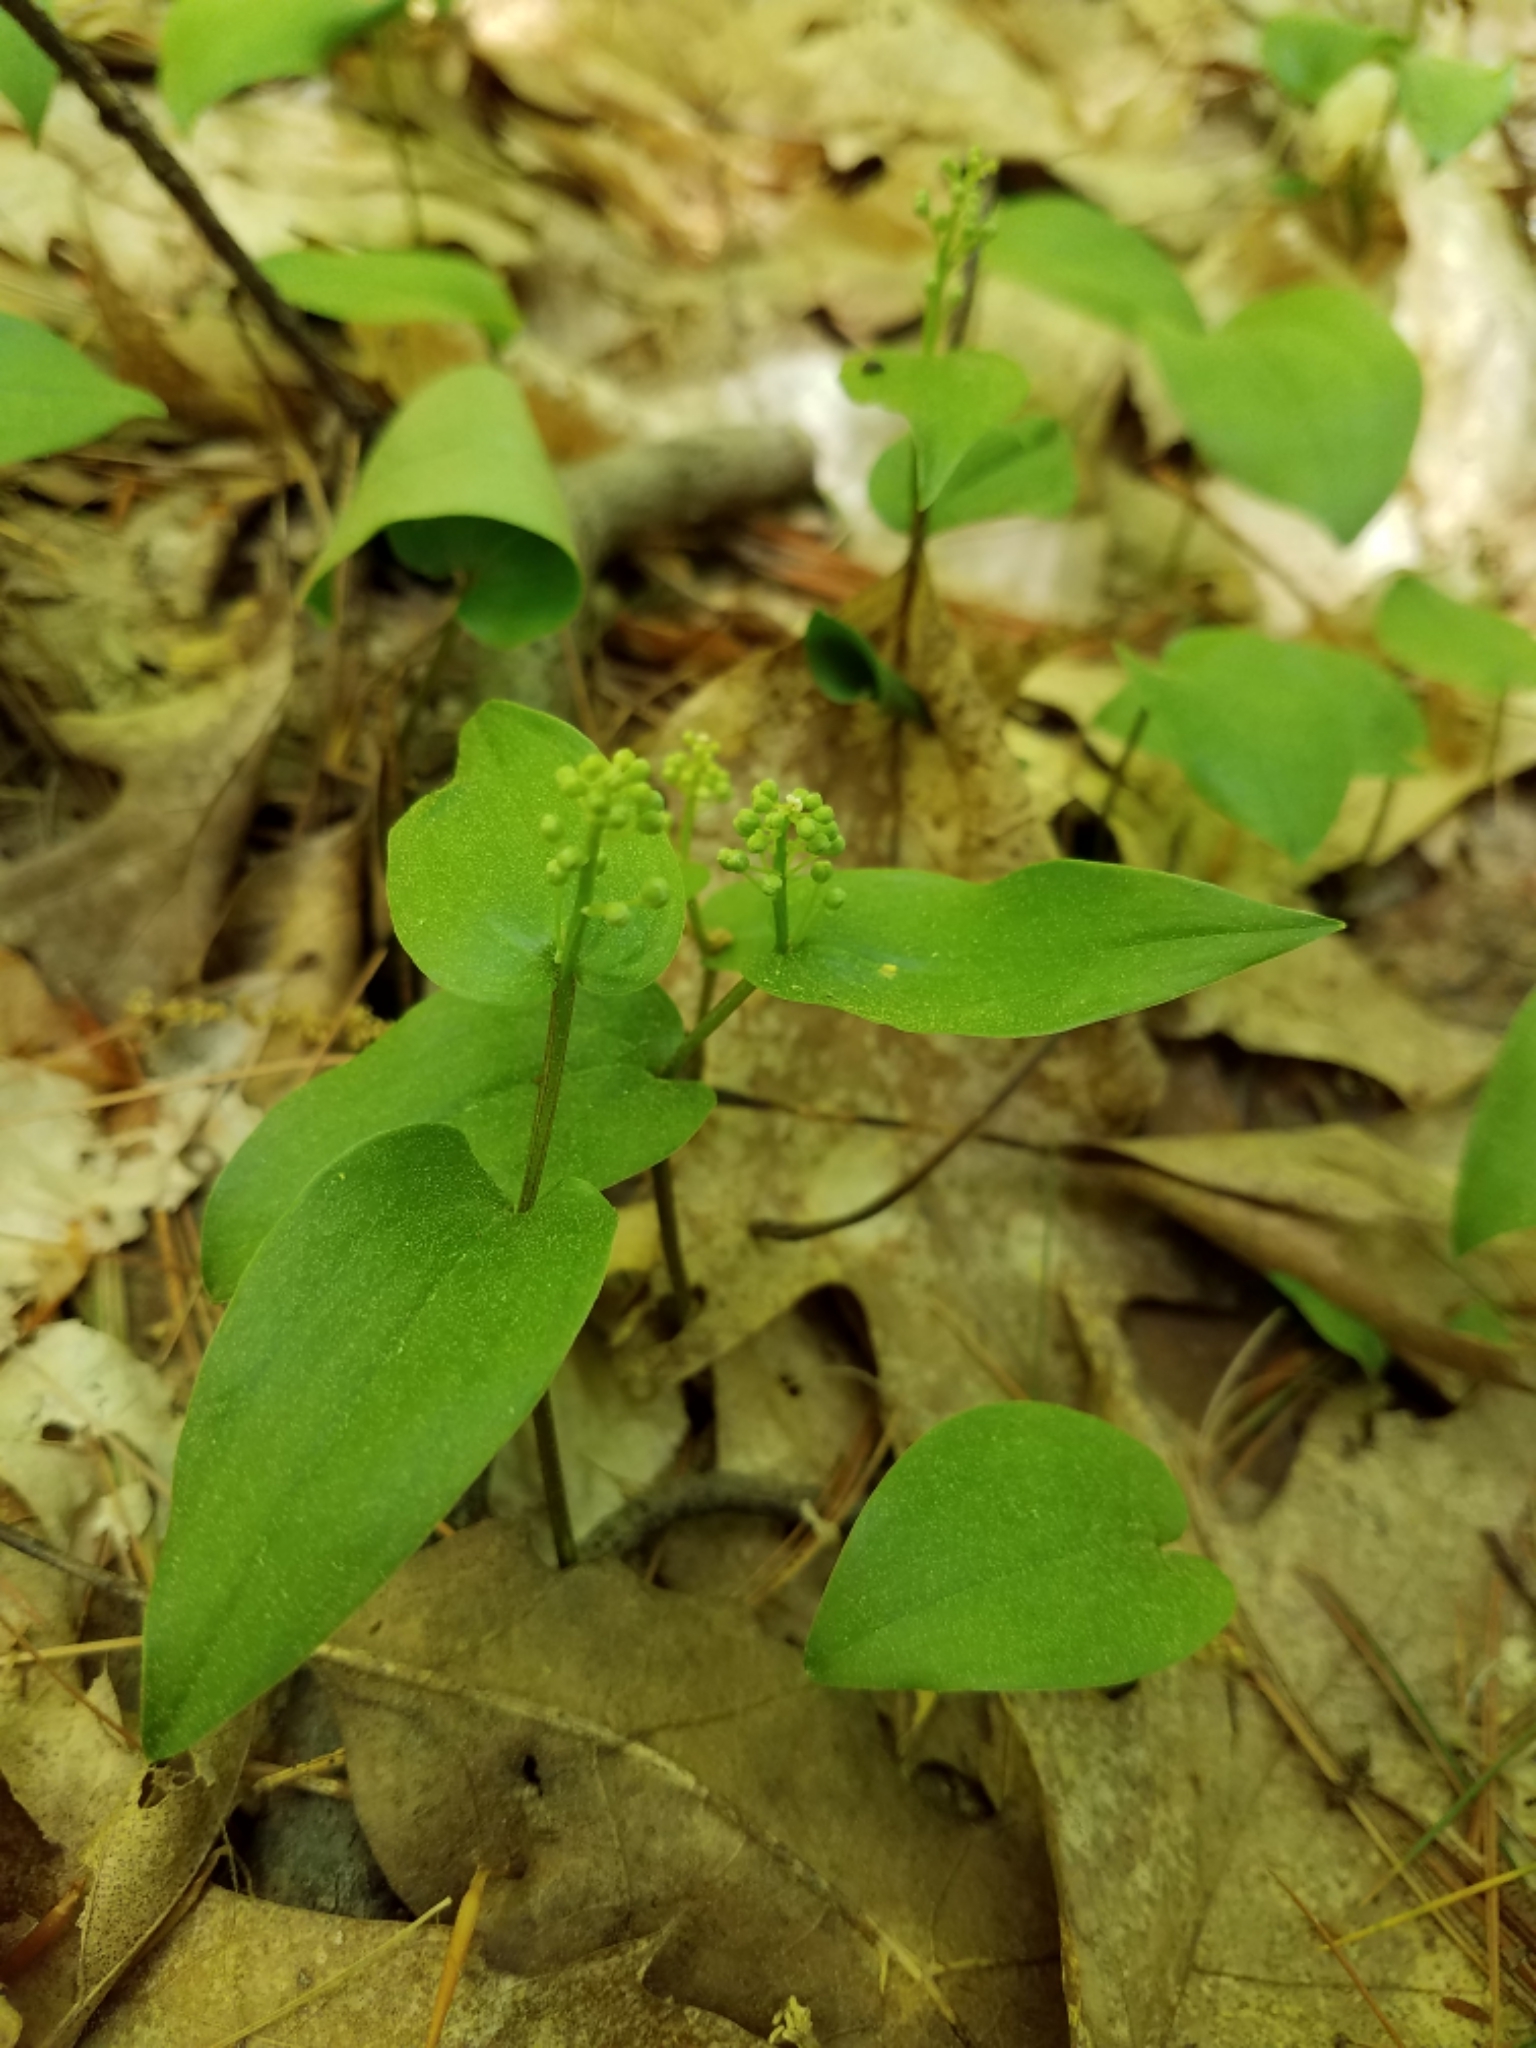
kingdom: Plantae
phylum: Tracheophyta
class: Liliopsida
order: Asparagales
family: Asparagaceae
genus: Maianthemum
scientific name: Maianthemum canadense
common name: False lily-of-the-valley
